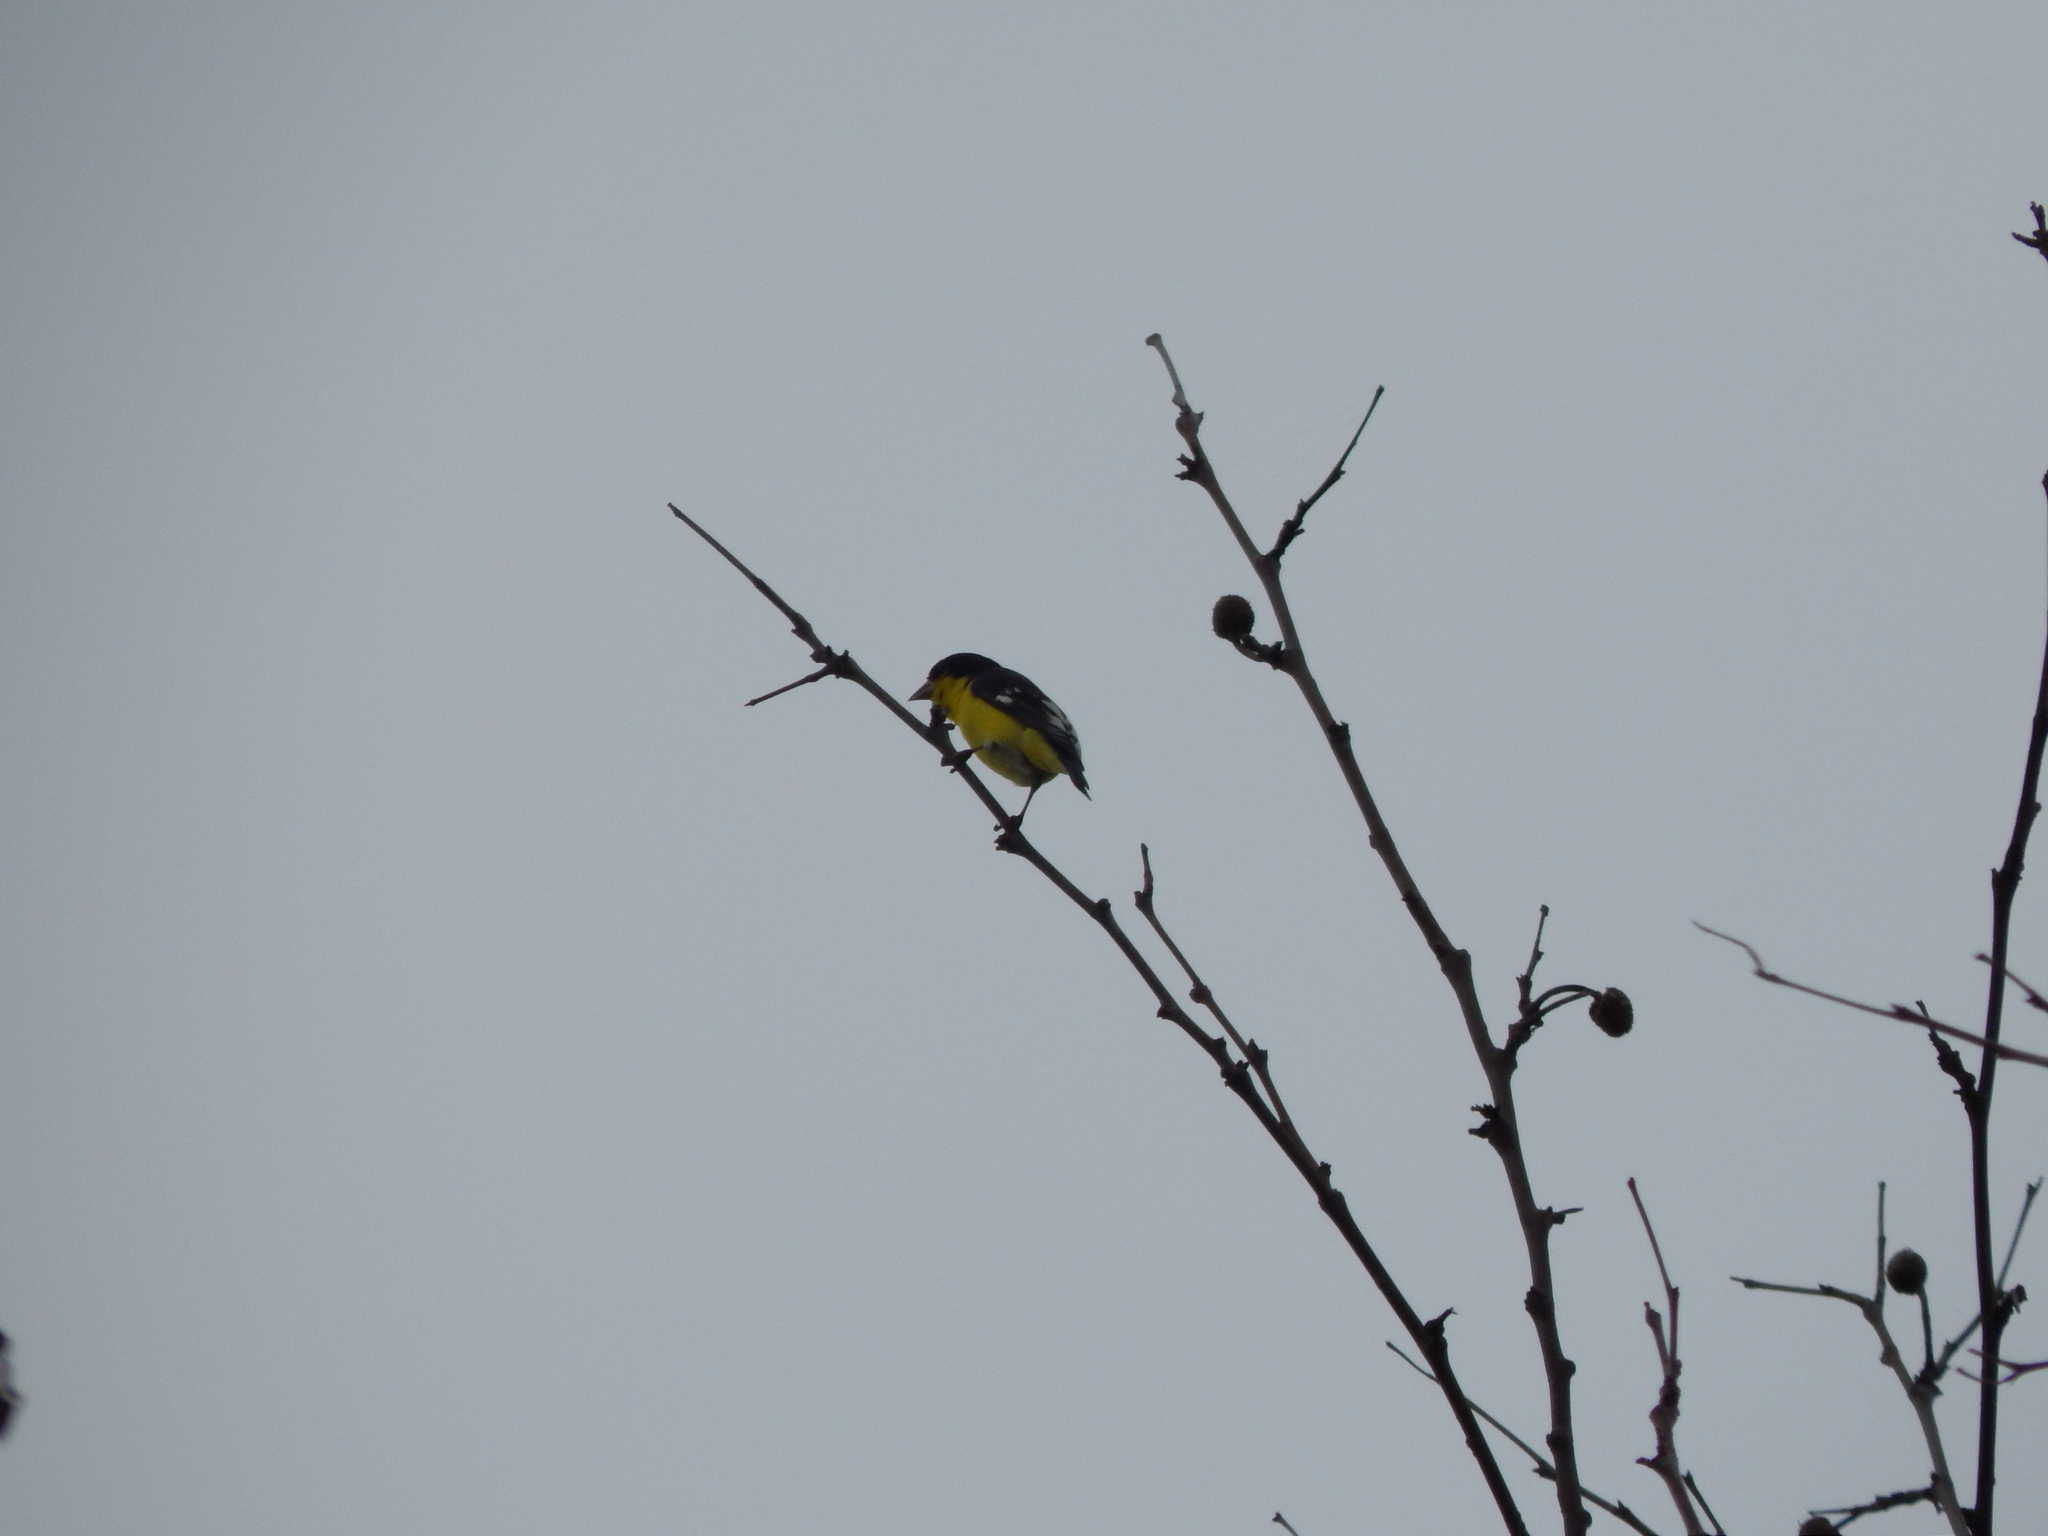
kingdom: Animalia
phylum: Chordata
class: Aves
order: Passeriformes
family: Fringillidae
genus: Spinus
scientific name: Spinus psaltria
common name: Lesser goldfinch
